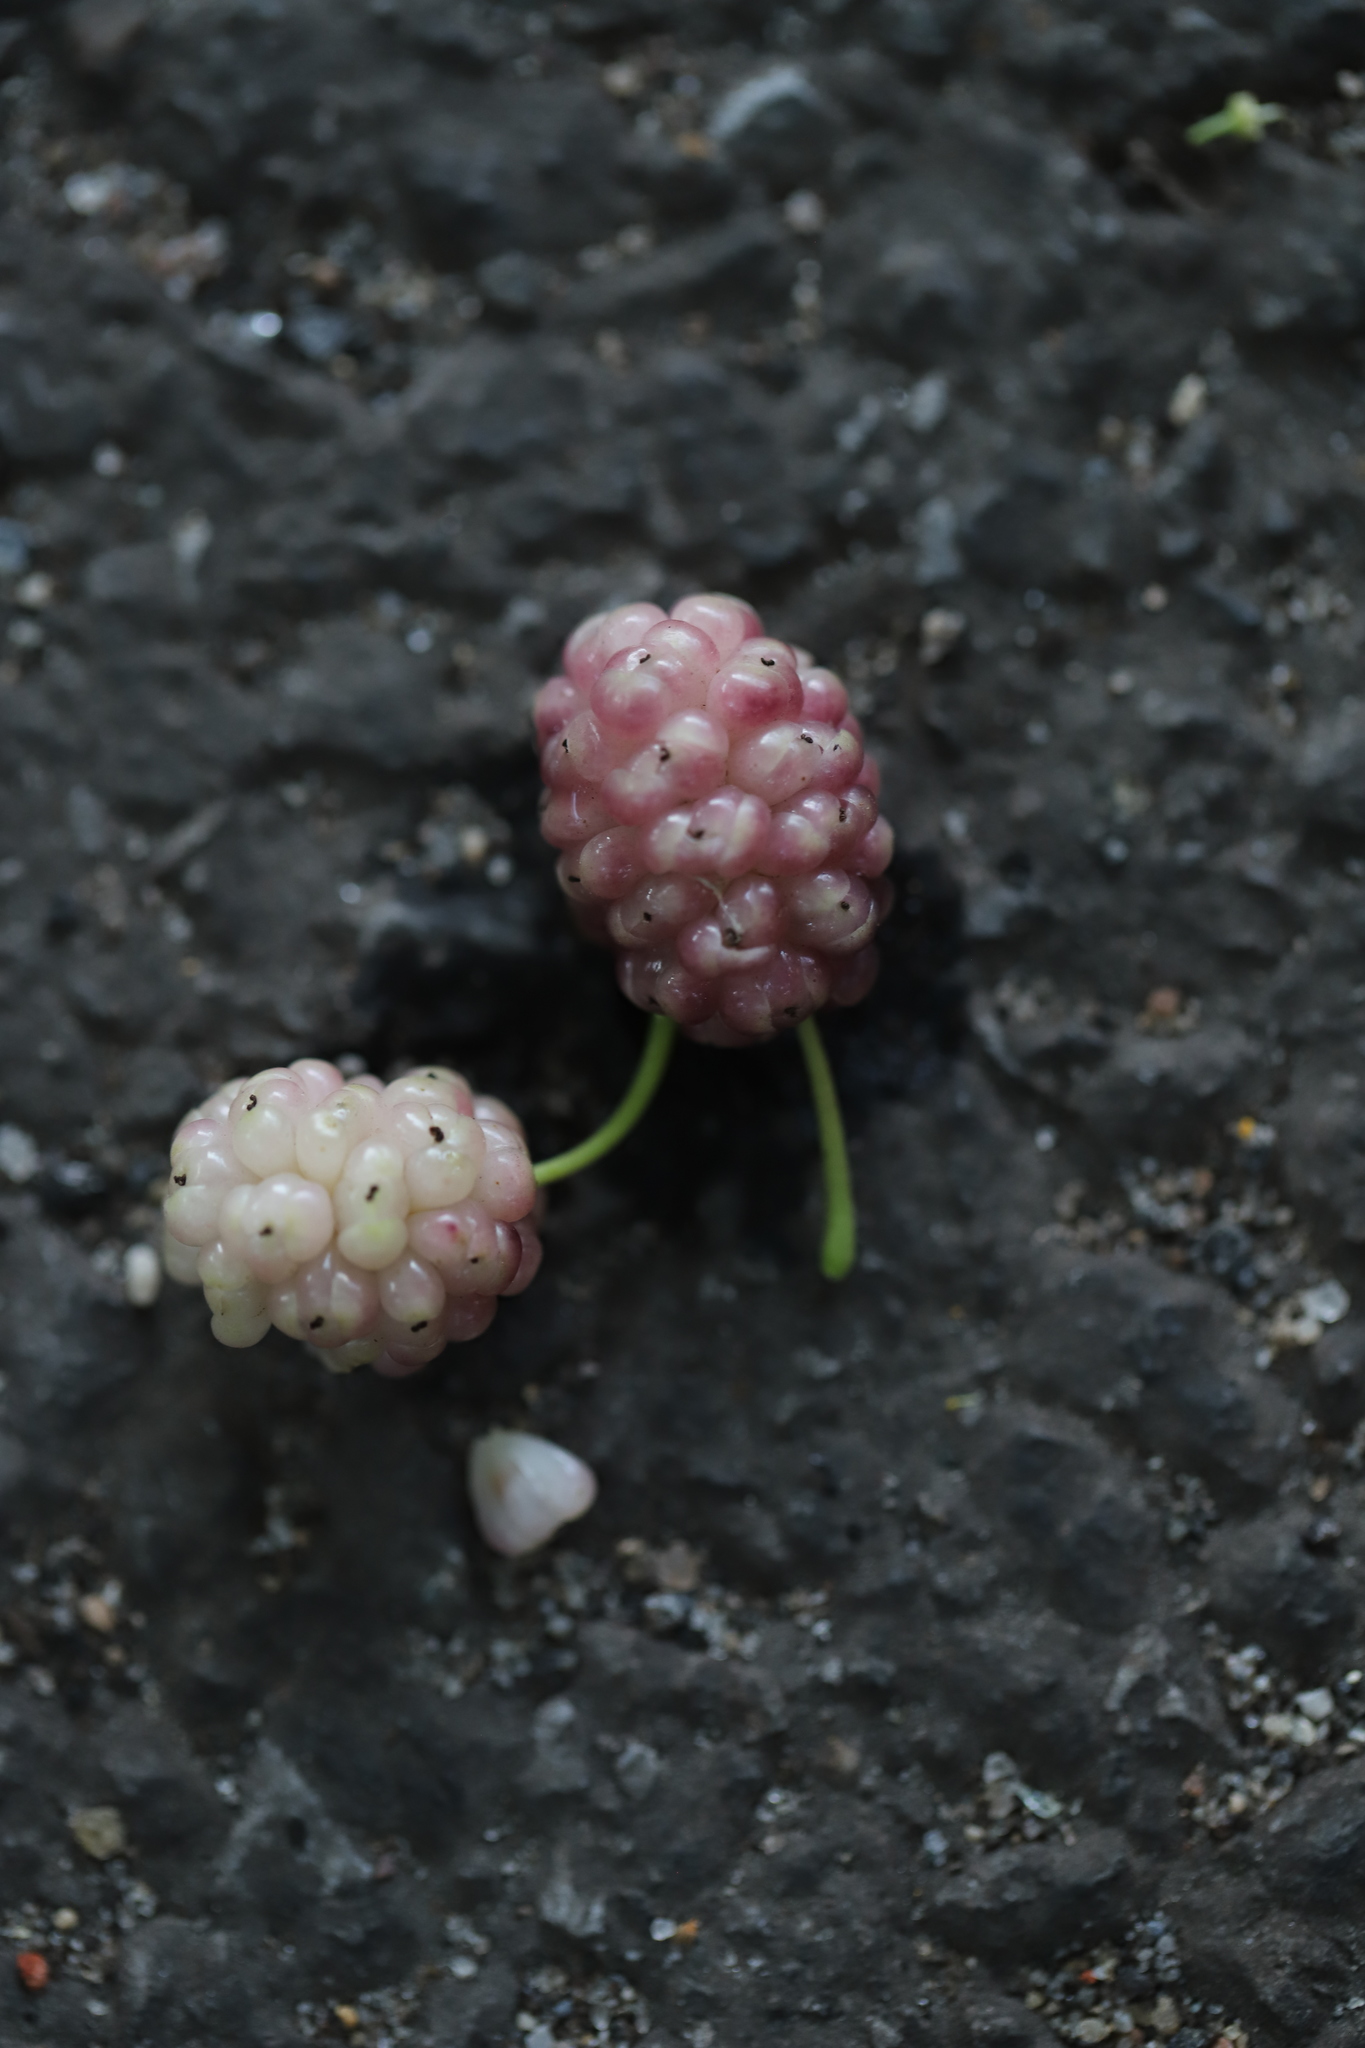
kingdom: Plantae
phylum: Tracheophyta
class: Magnoliopsida
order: Rosales
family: Moraceae
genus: Morus
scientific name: Morus alba
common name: White mulberry
